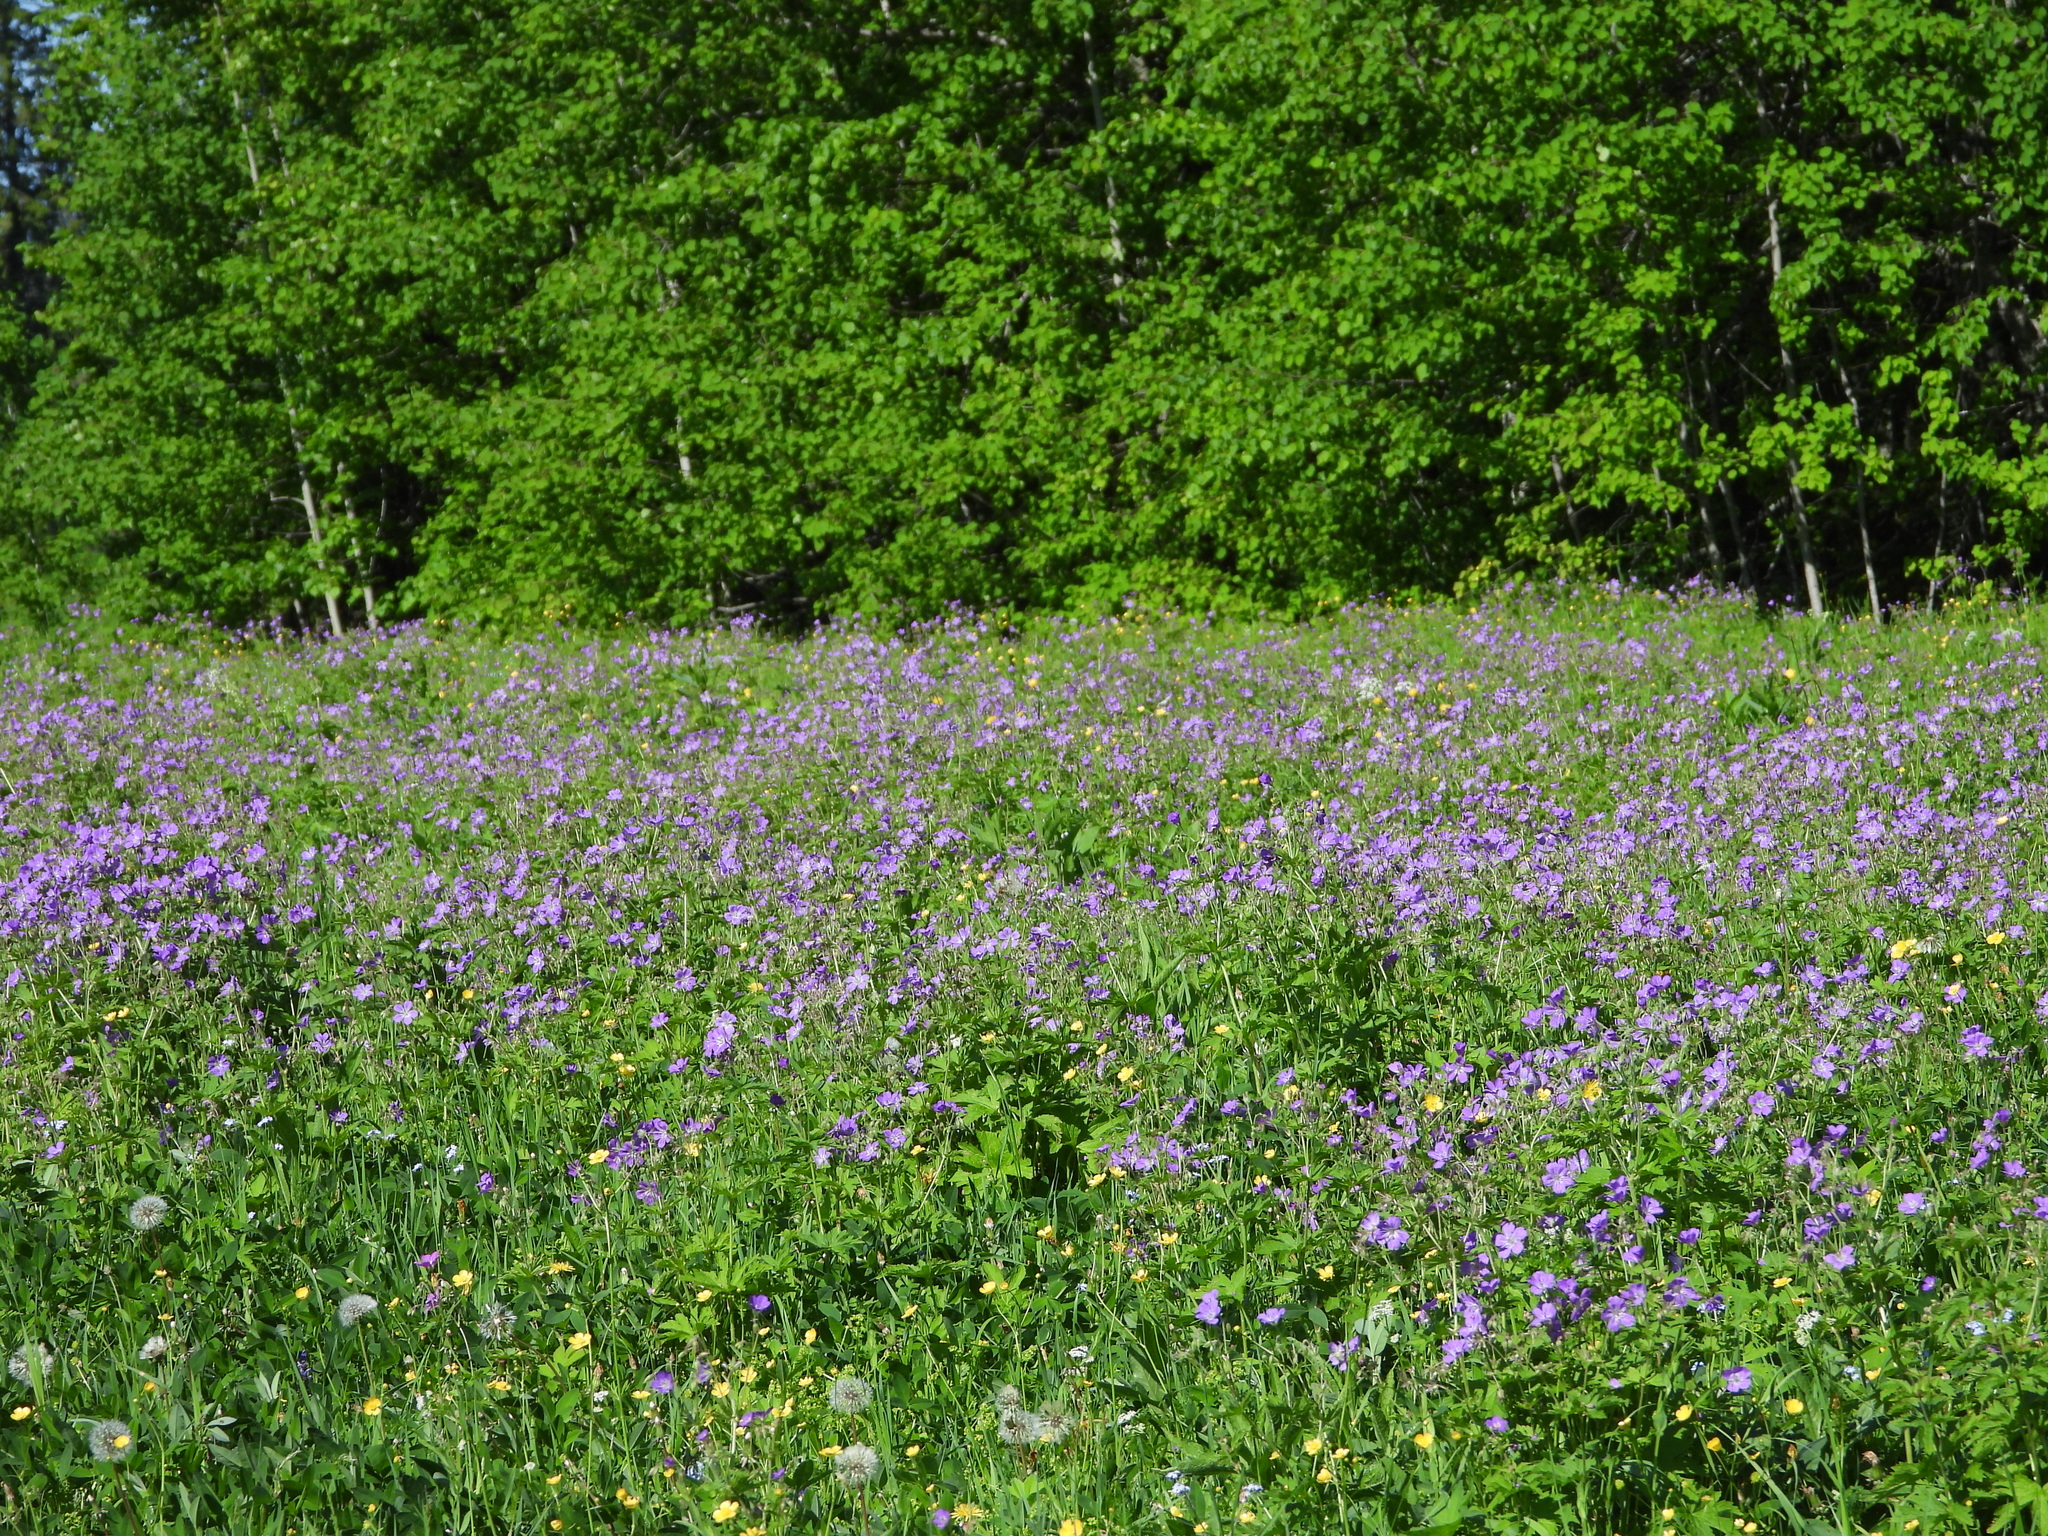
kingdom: Plantae
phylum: Tracheophyta
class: Magnoliopsida
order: Geraniales
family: Geraniaceae
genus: Geranium
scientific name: Geranium sylvaticum
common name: Wood crane's-bill
